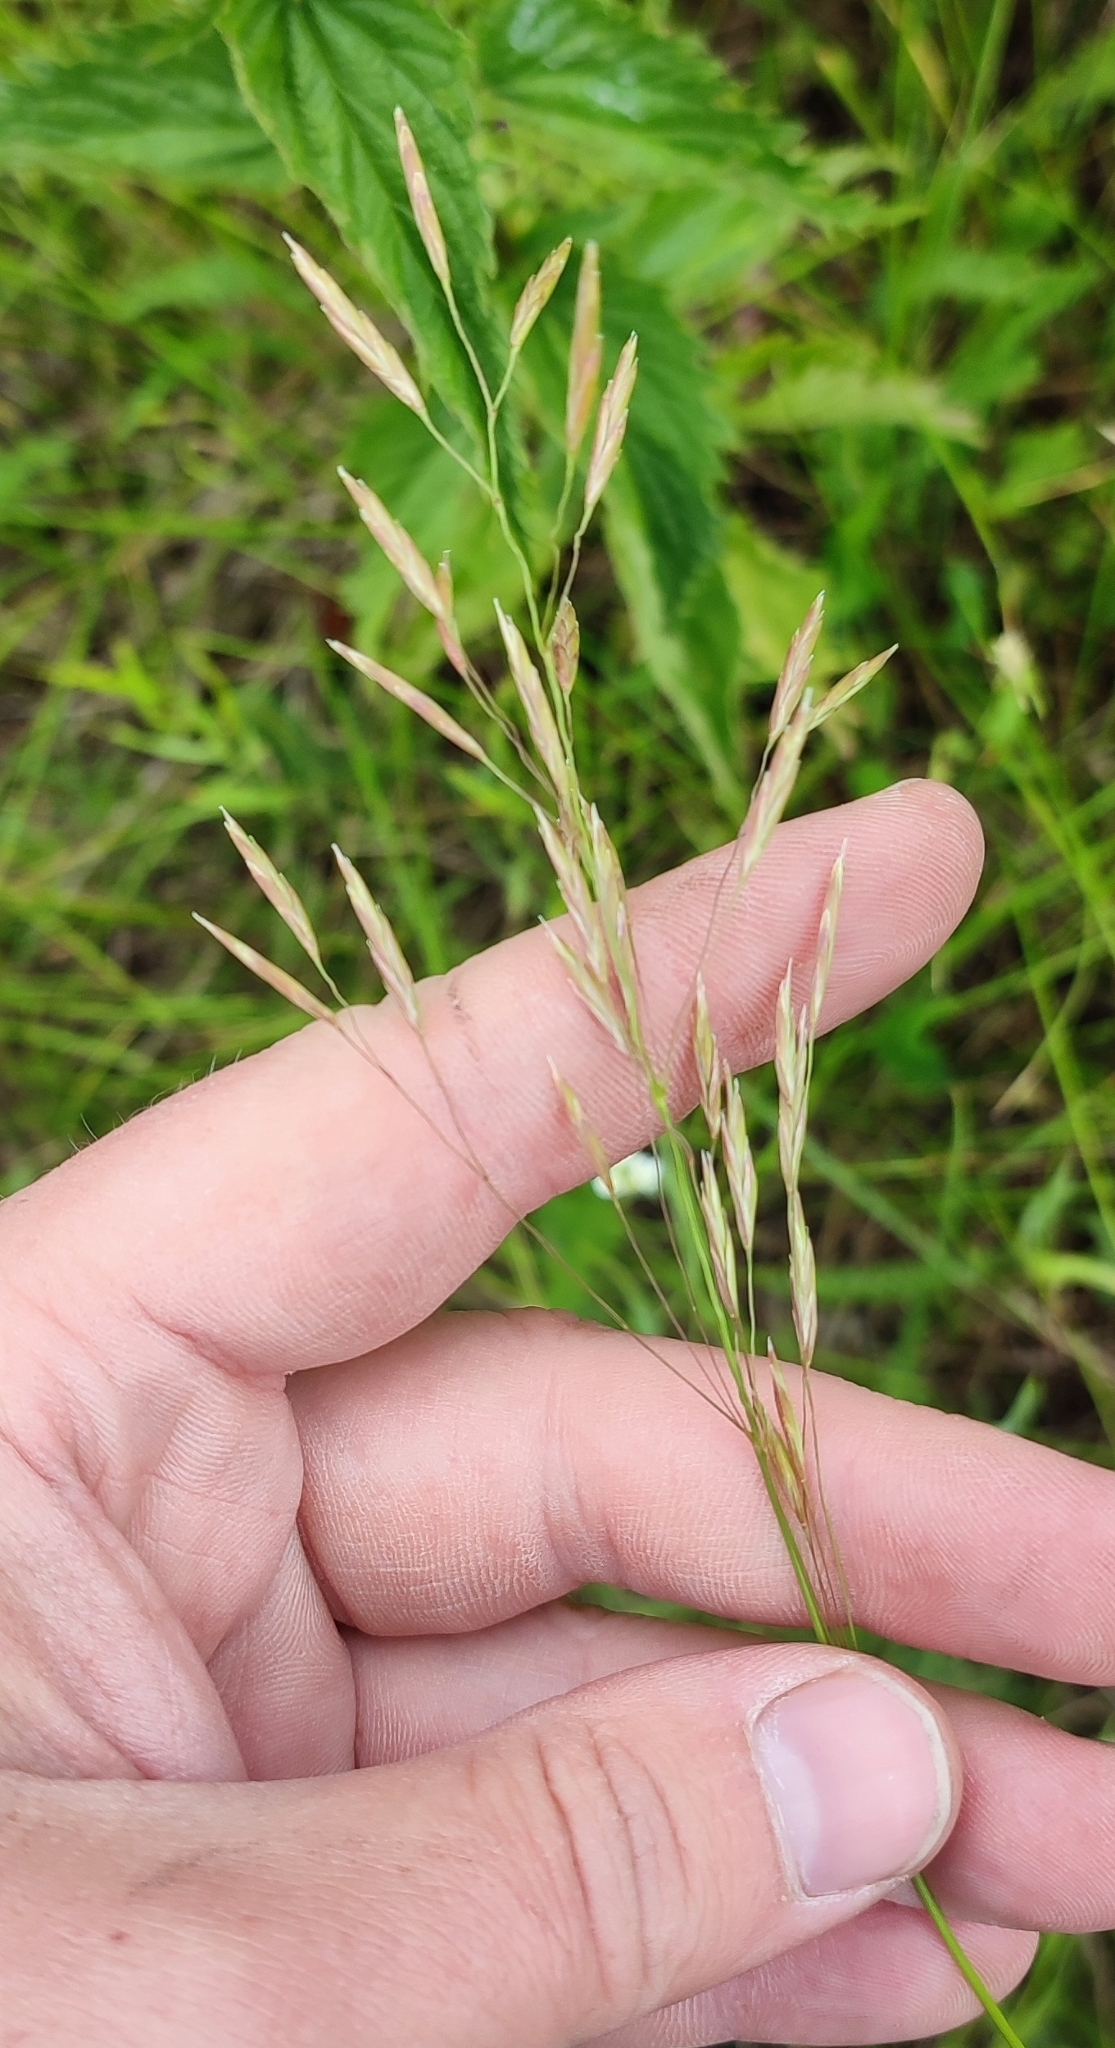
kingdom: Plantae
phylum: Tracheophyta
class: Liliopsida
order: Poales
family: Poaceae
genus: Bromus
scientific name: Bromus inermis
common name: Smooth brome
